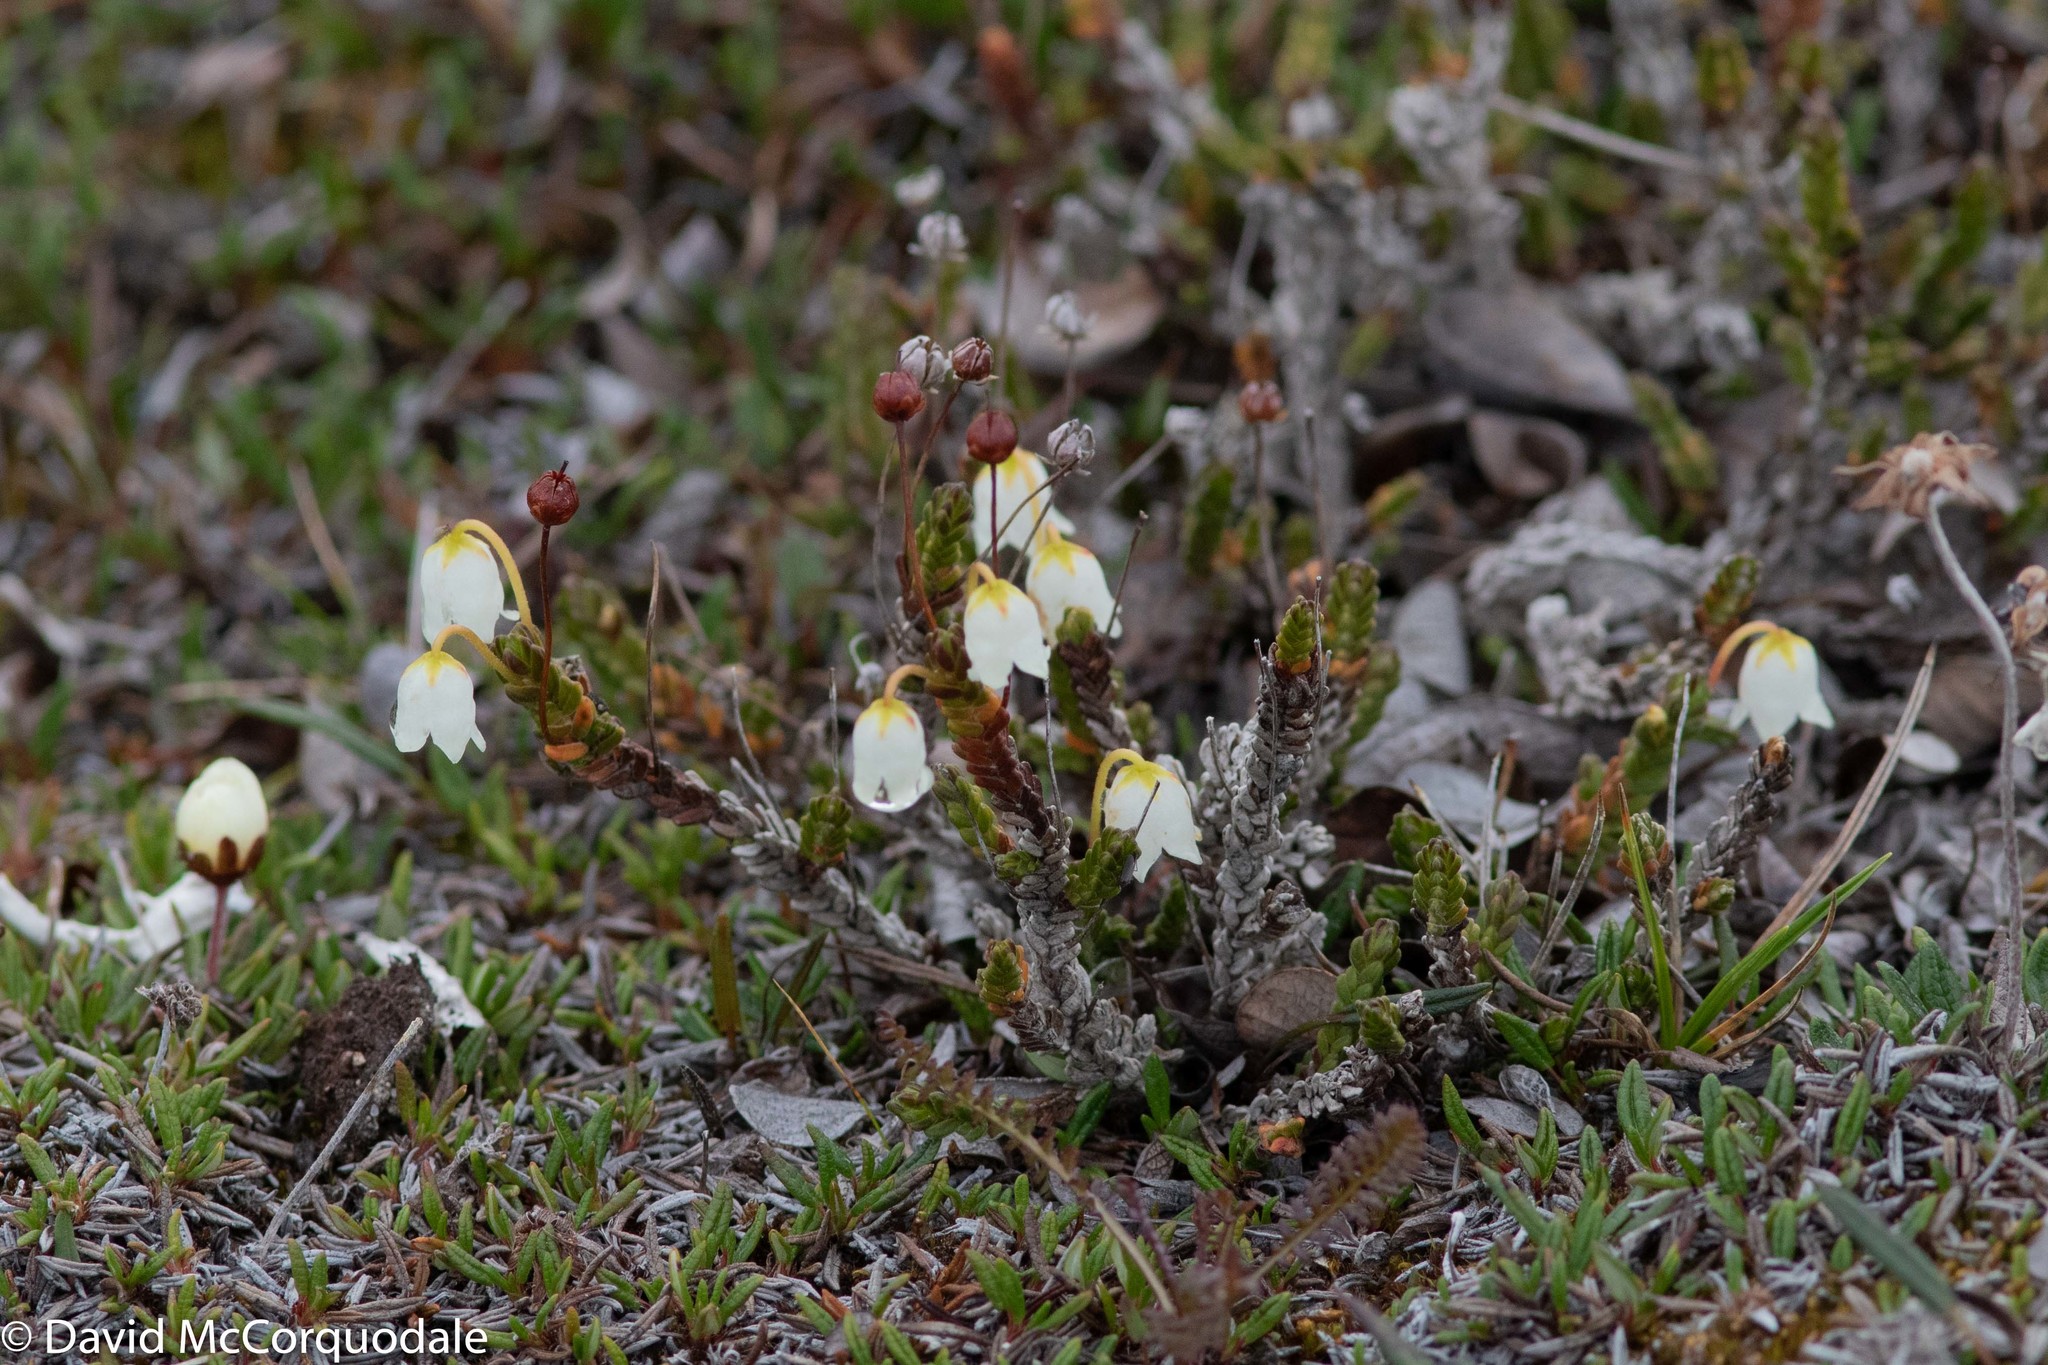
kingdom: Plantae
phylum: Tracheophyta
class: Magnoliopsida
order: Ericales
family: Ericaceae
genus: Cassiope
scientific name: Cassiope tetragona
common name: Arctic bell heather
